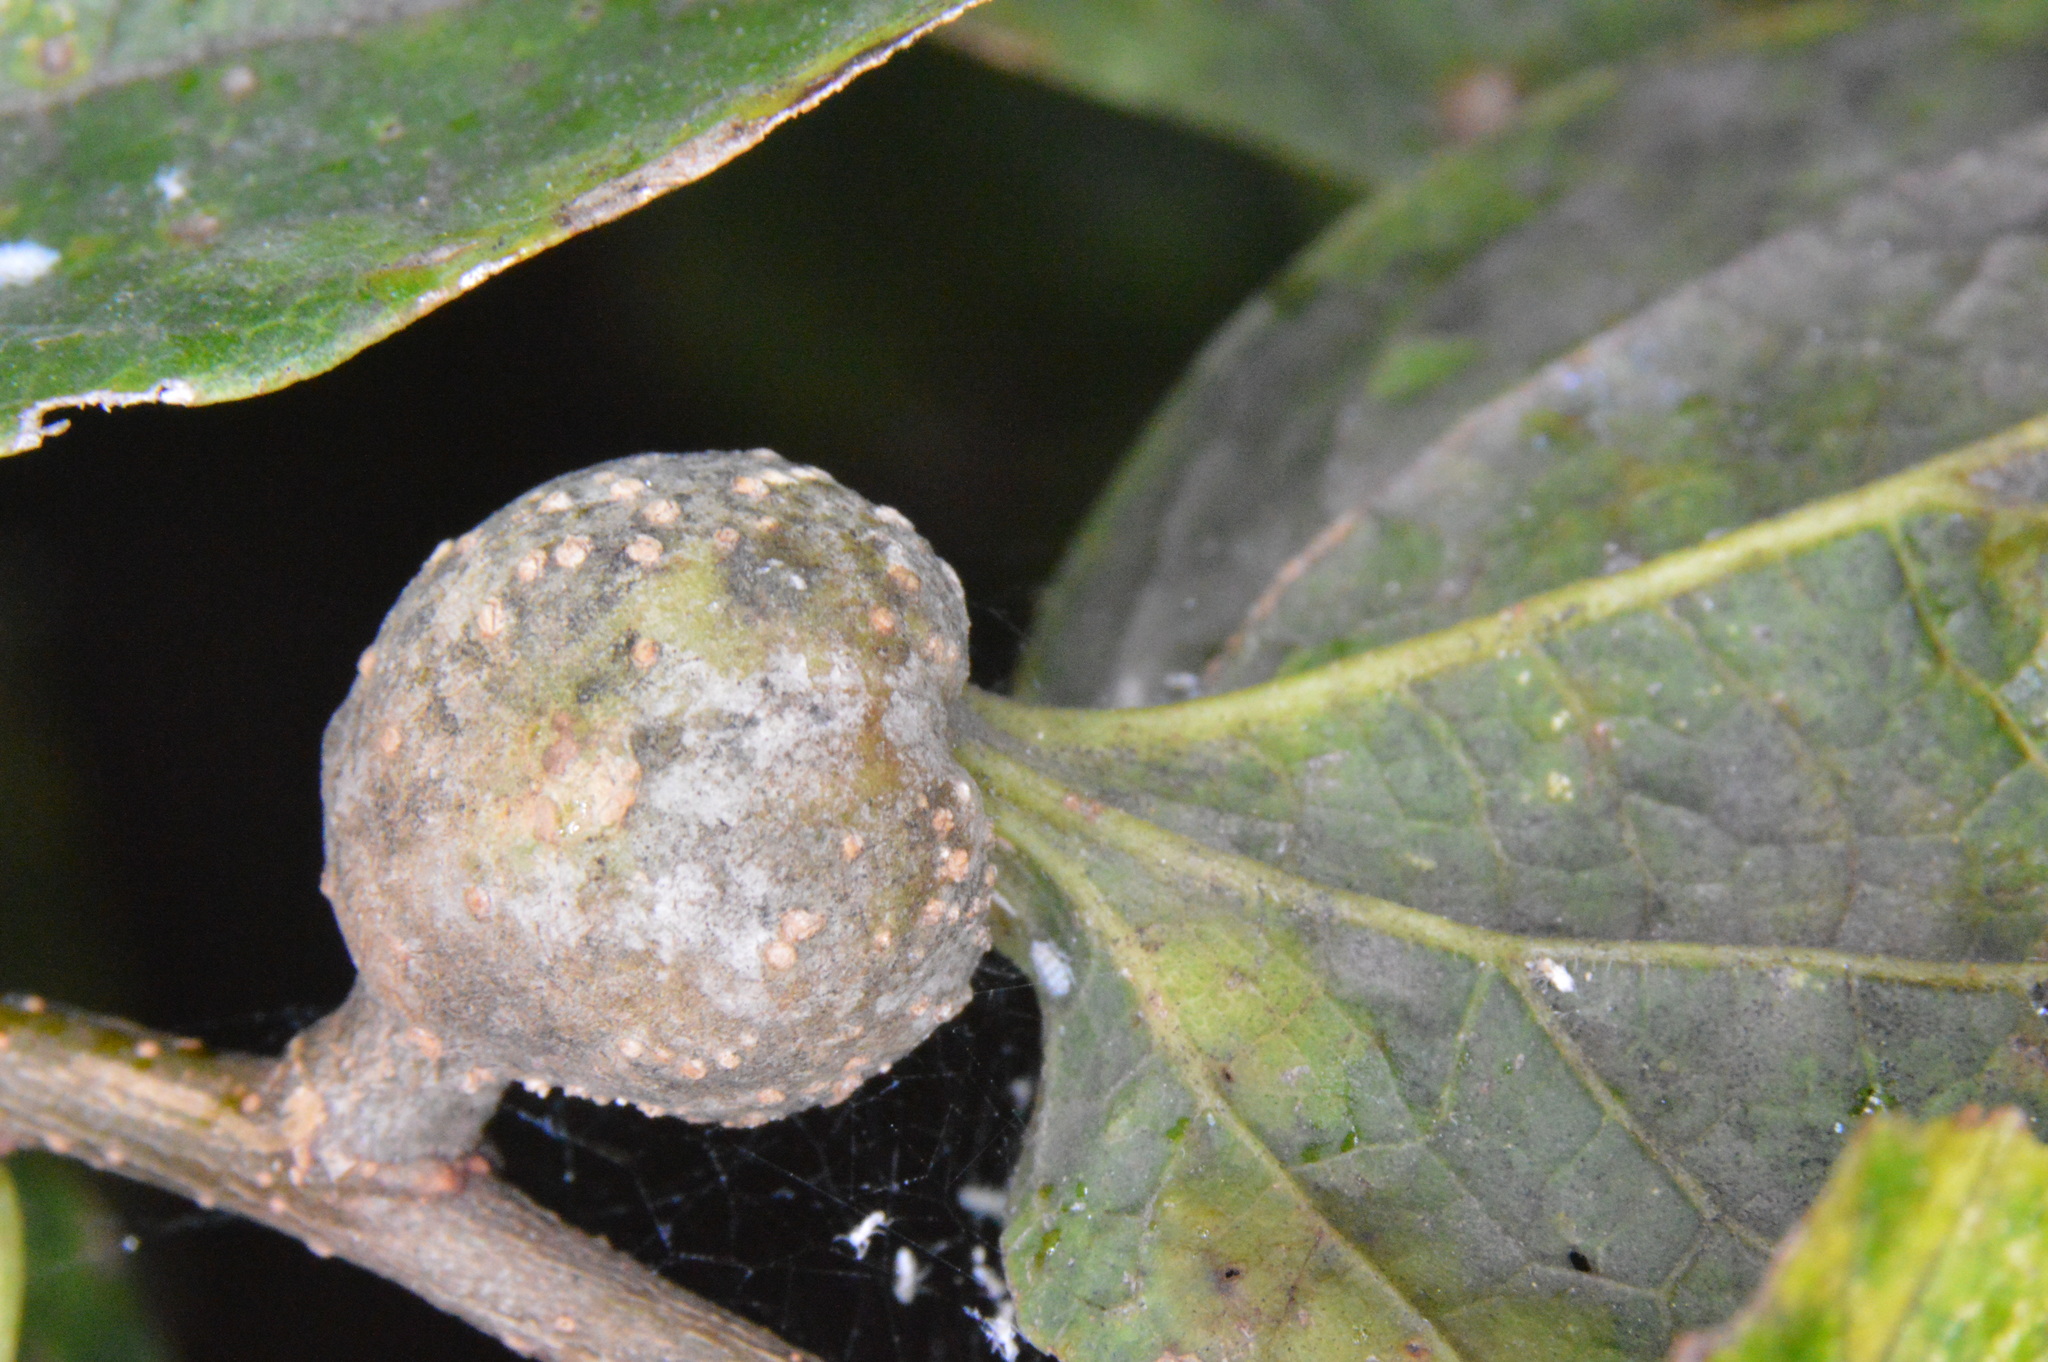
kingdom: Animalia
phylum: Arthropoda
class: Insecta
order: Hemiptera
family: Aphalaridae
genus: Pachypsylla
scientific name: Pachypsylla venusta
